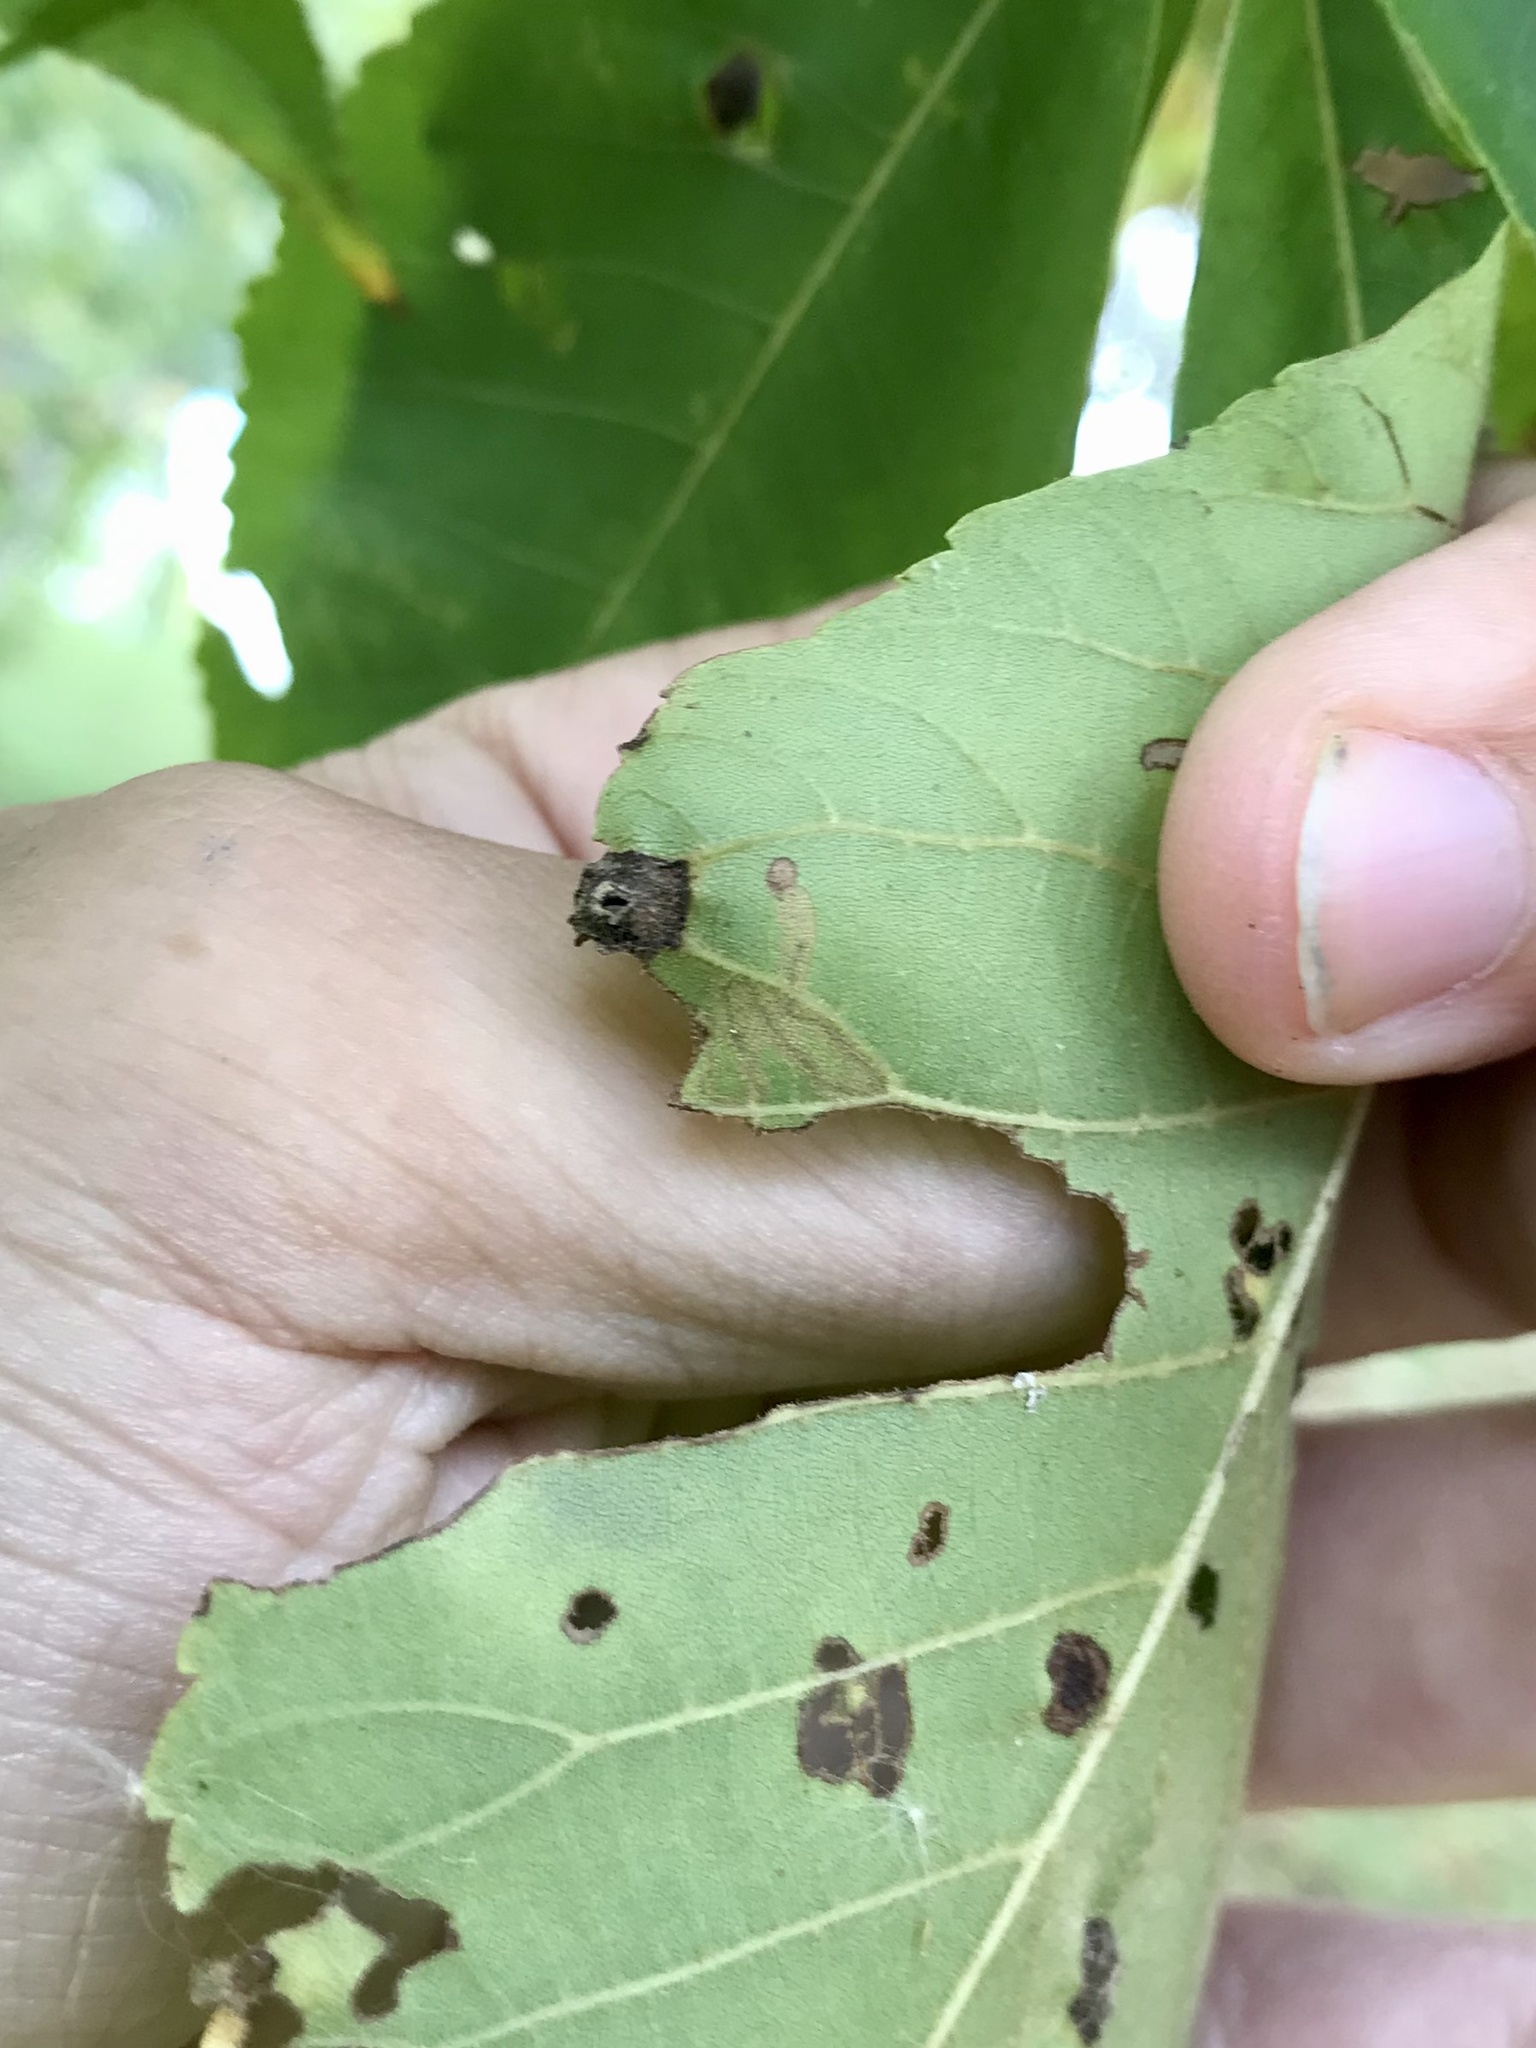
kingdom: Animalia
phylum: Arthropoda
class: Insecta
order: Lepidoptera
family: Nepticulidae
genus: Stigmella
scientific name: Stigmella caryaefoliella
